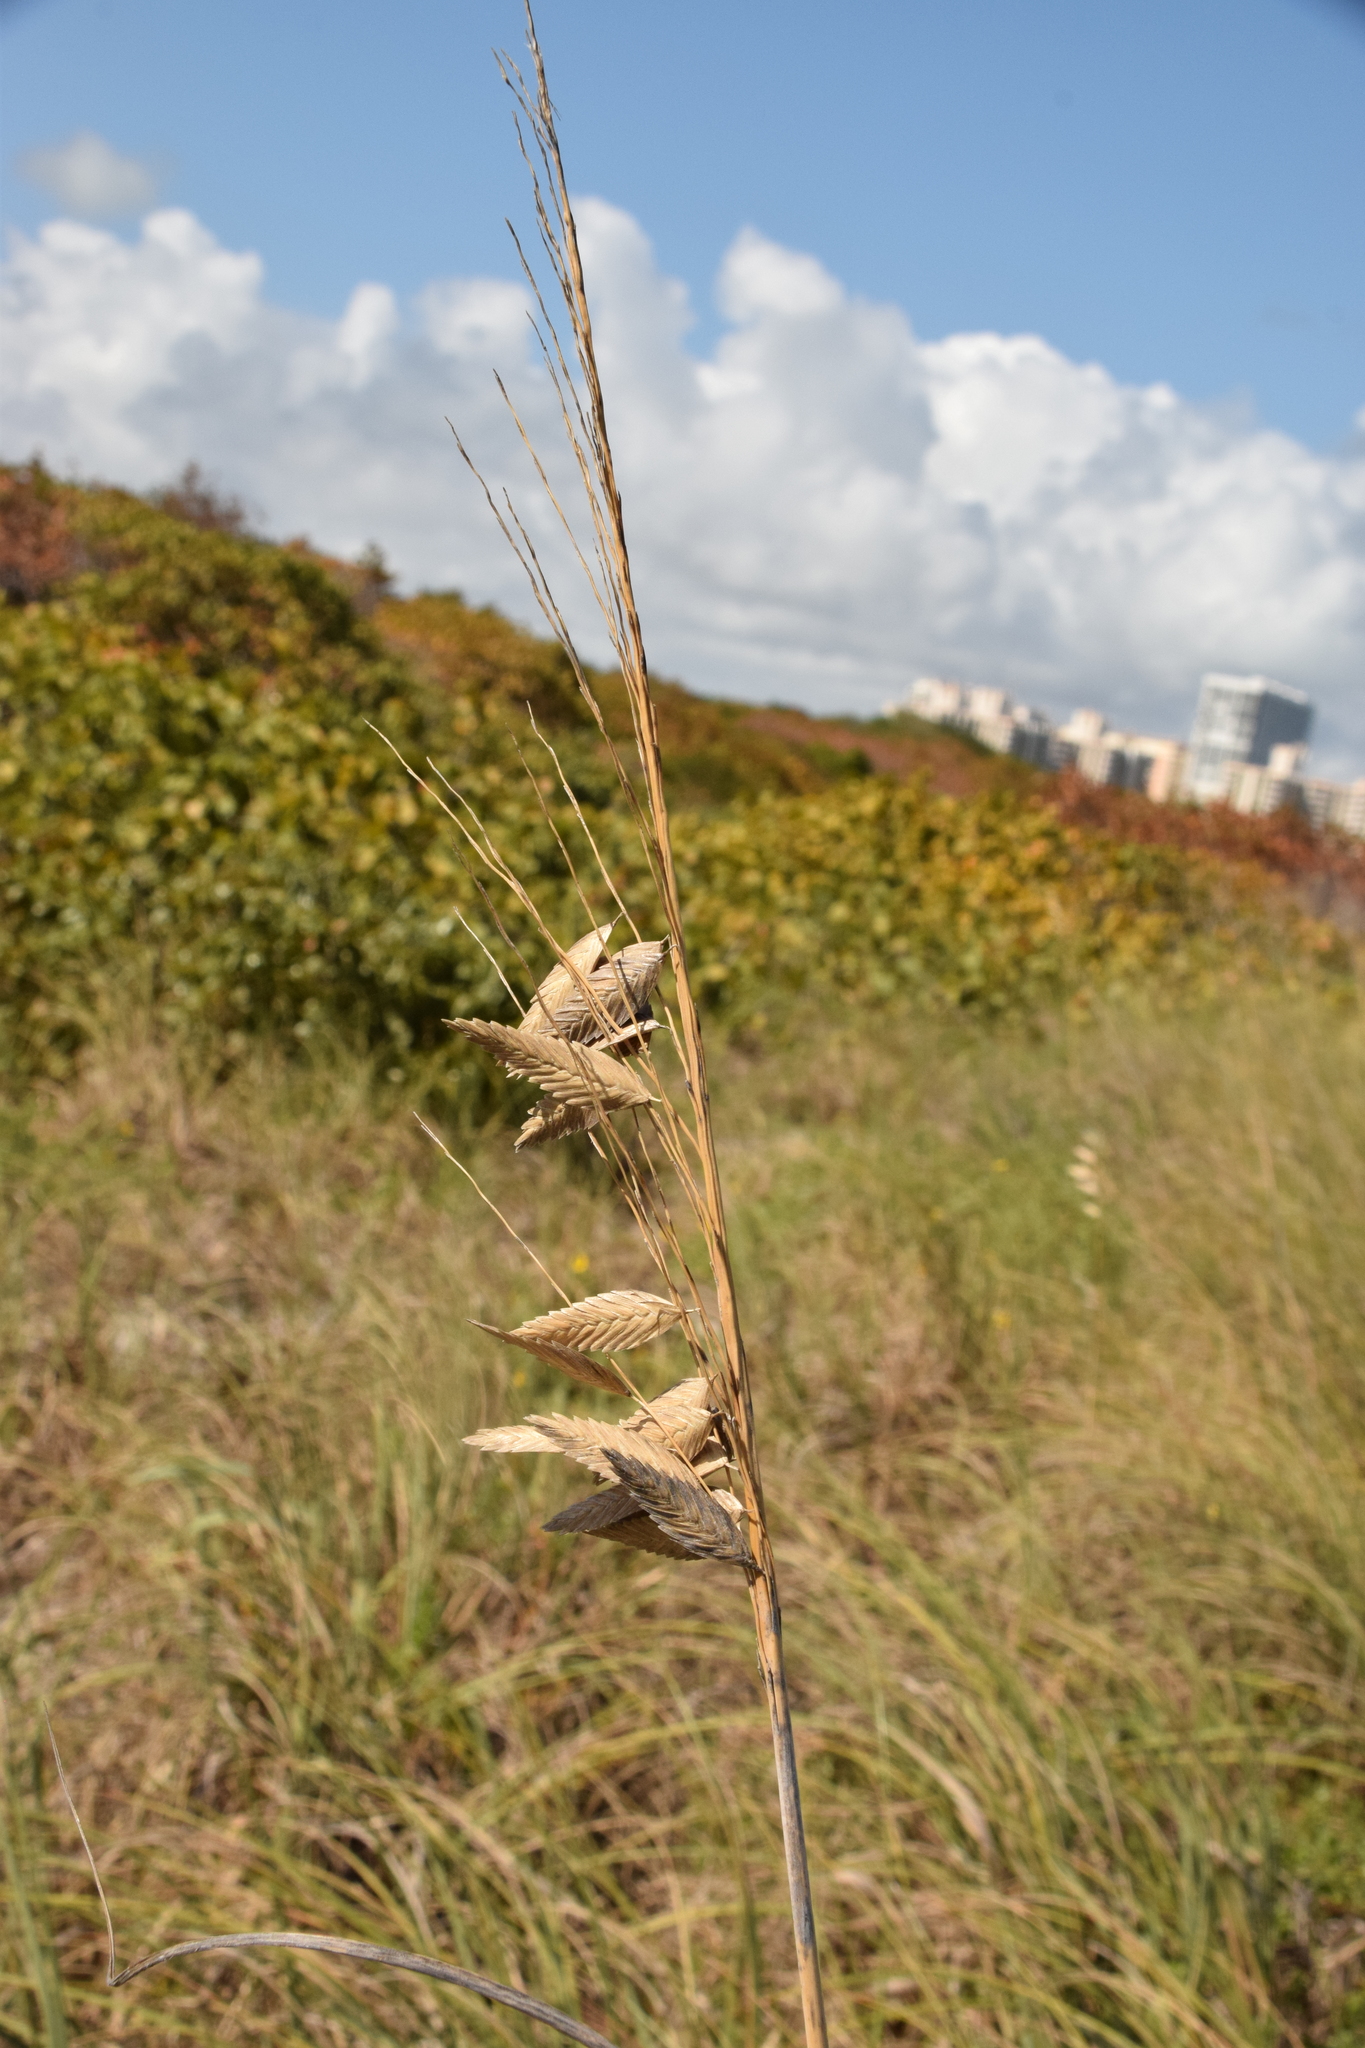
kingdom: Plantae
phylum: Tracheophyta
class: Liliopsida
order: Poales
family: Poaceae
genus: Uniola
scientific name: Uniola paniculata
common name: Seaside-oats
